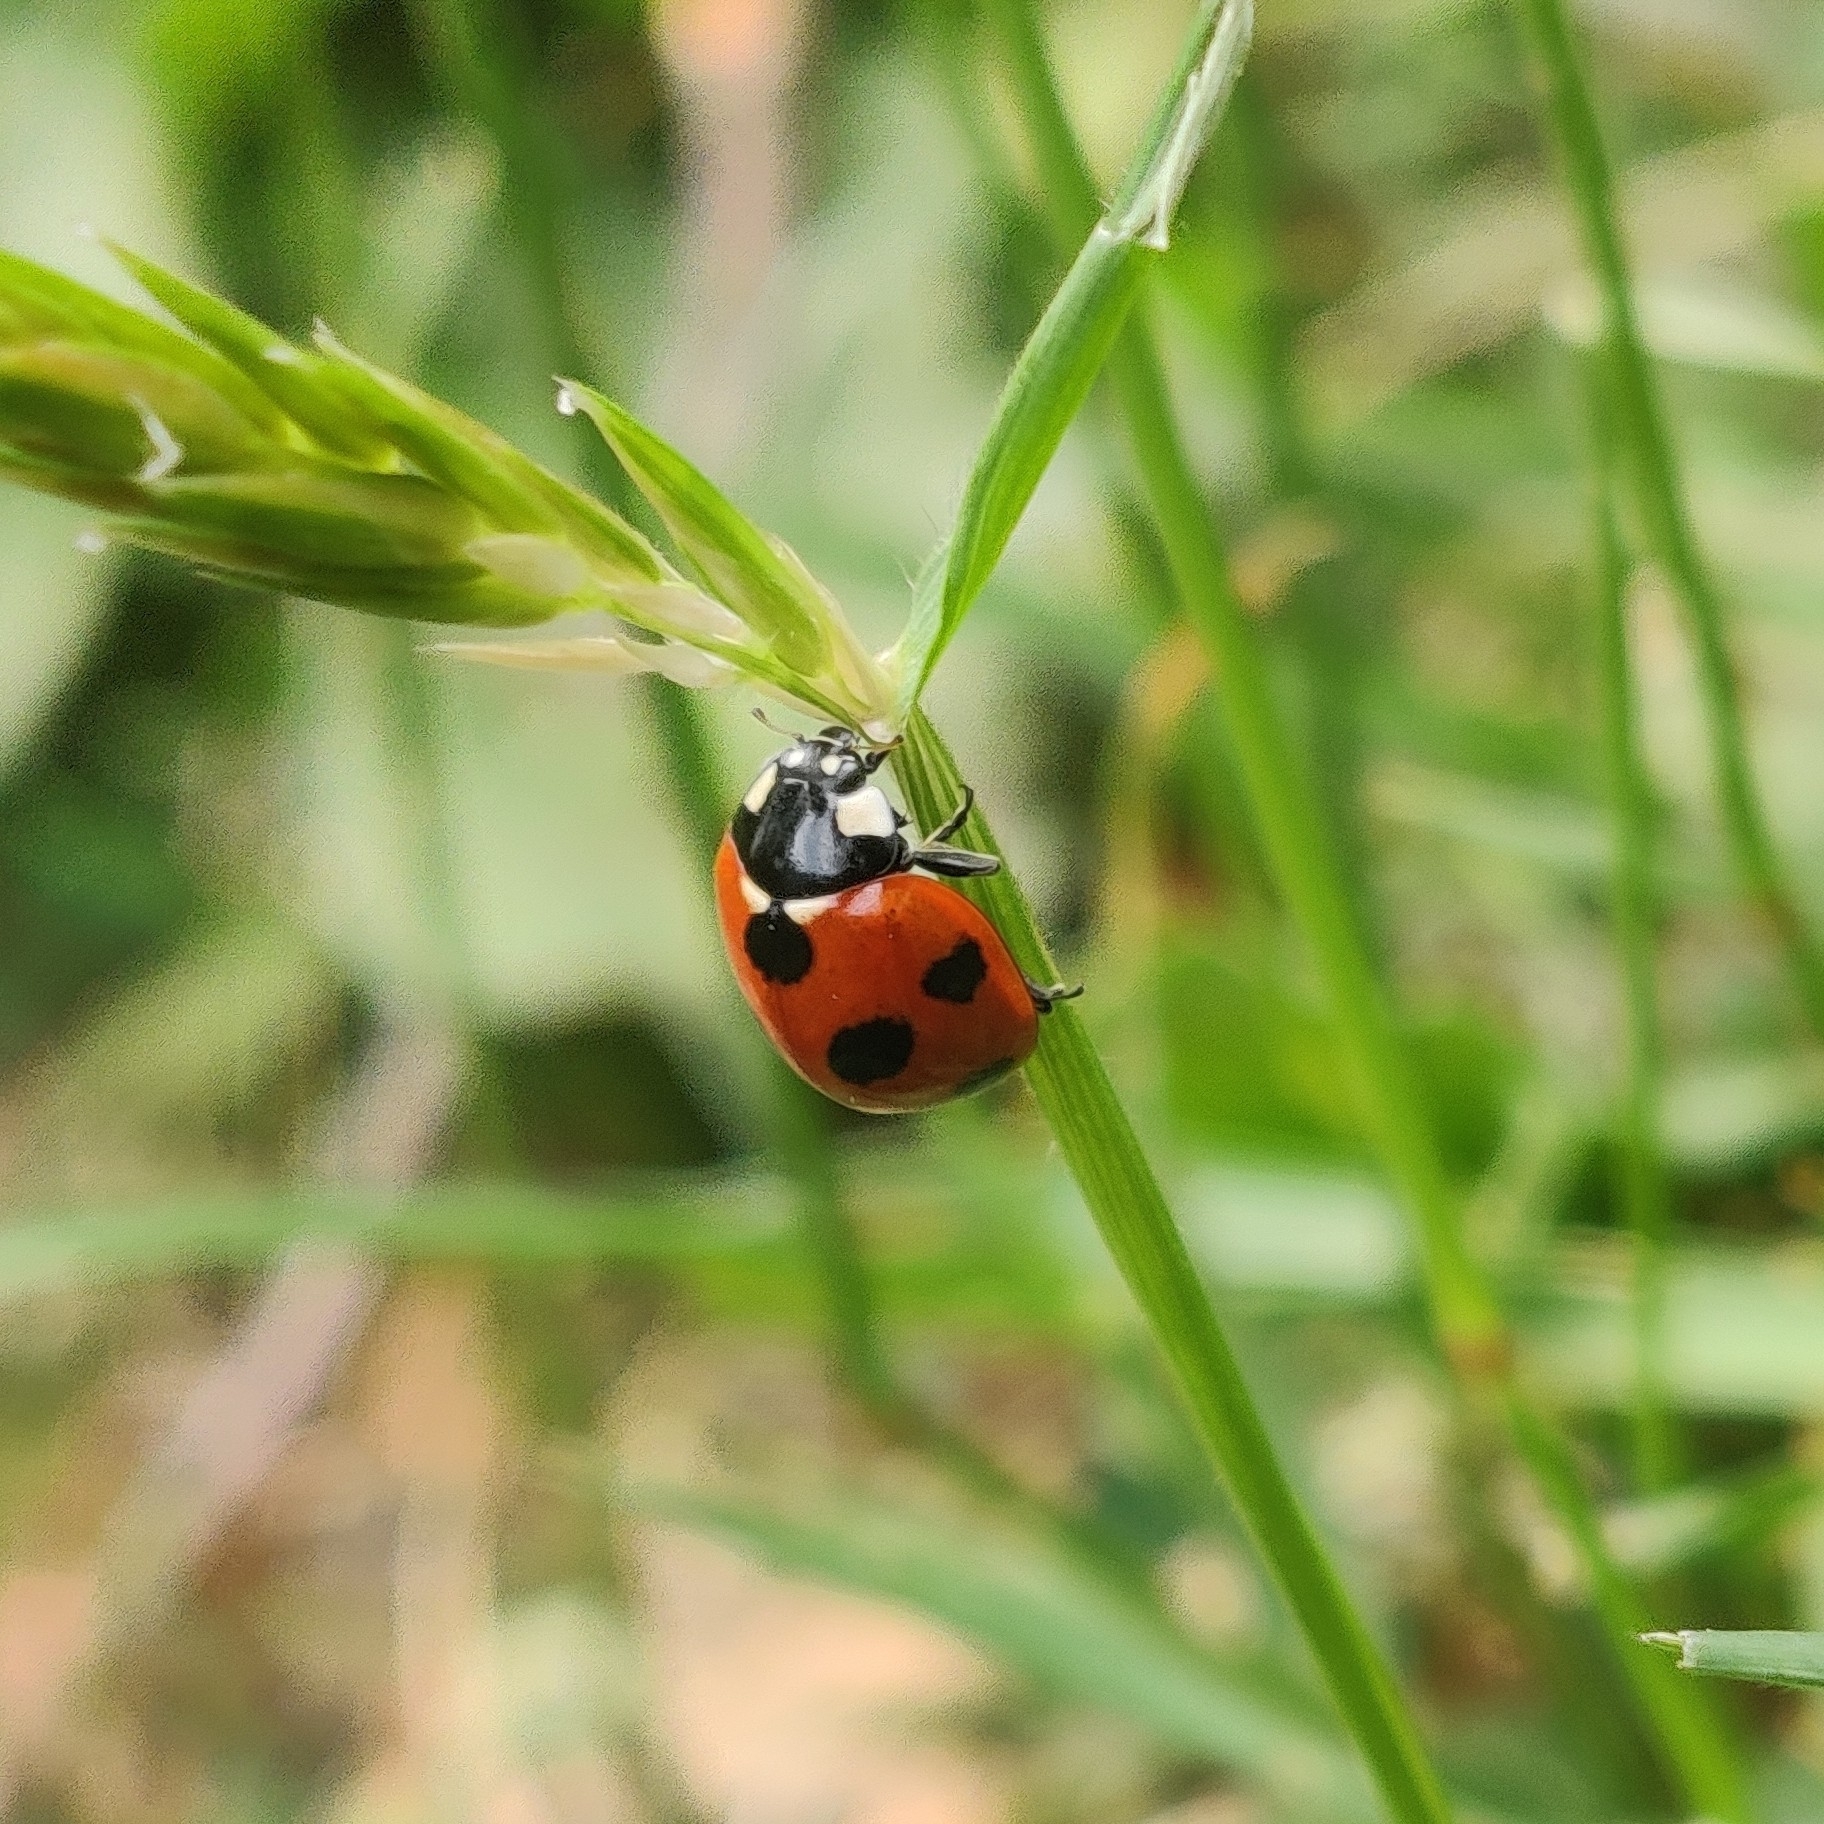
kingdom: Animalia
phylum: Arthropoda
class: Insecta
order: Coleoptera
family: Coccinellidae
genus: Coccinella
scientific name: Coccinella septempunctata
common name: Sevenspotted lady beetle
